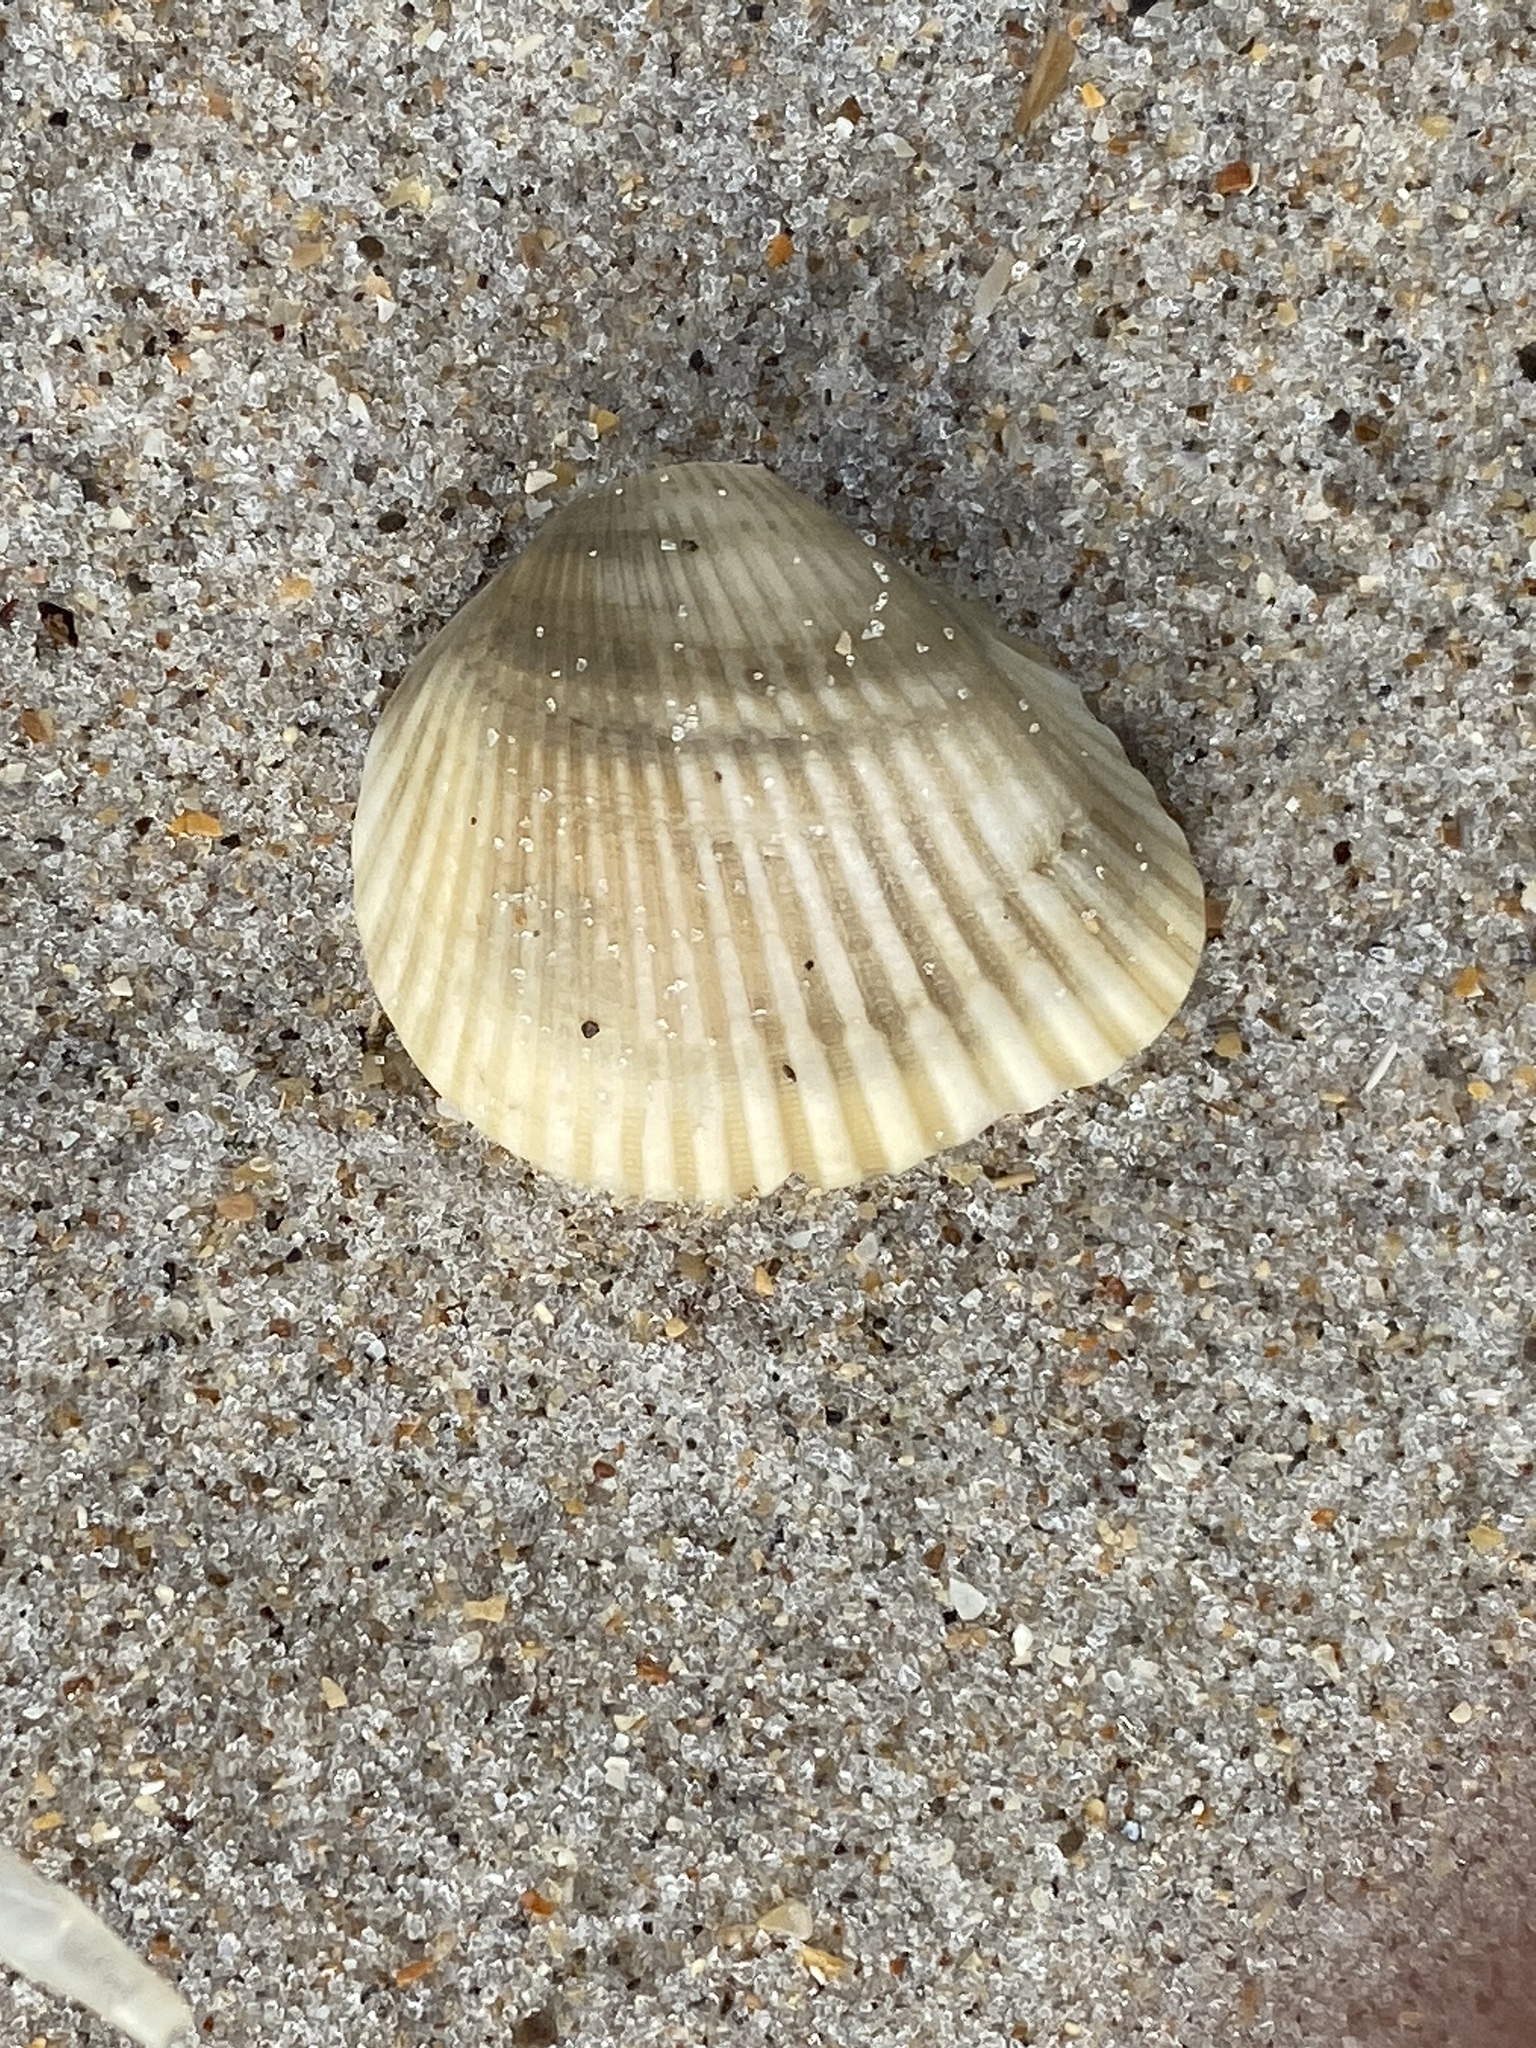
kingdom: Animalia
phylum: Mollusca
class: Bivalvia
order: Arcida
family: Noetiidae
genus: Noetia
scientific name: Noetia ponderosa
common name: Ponderous ark
